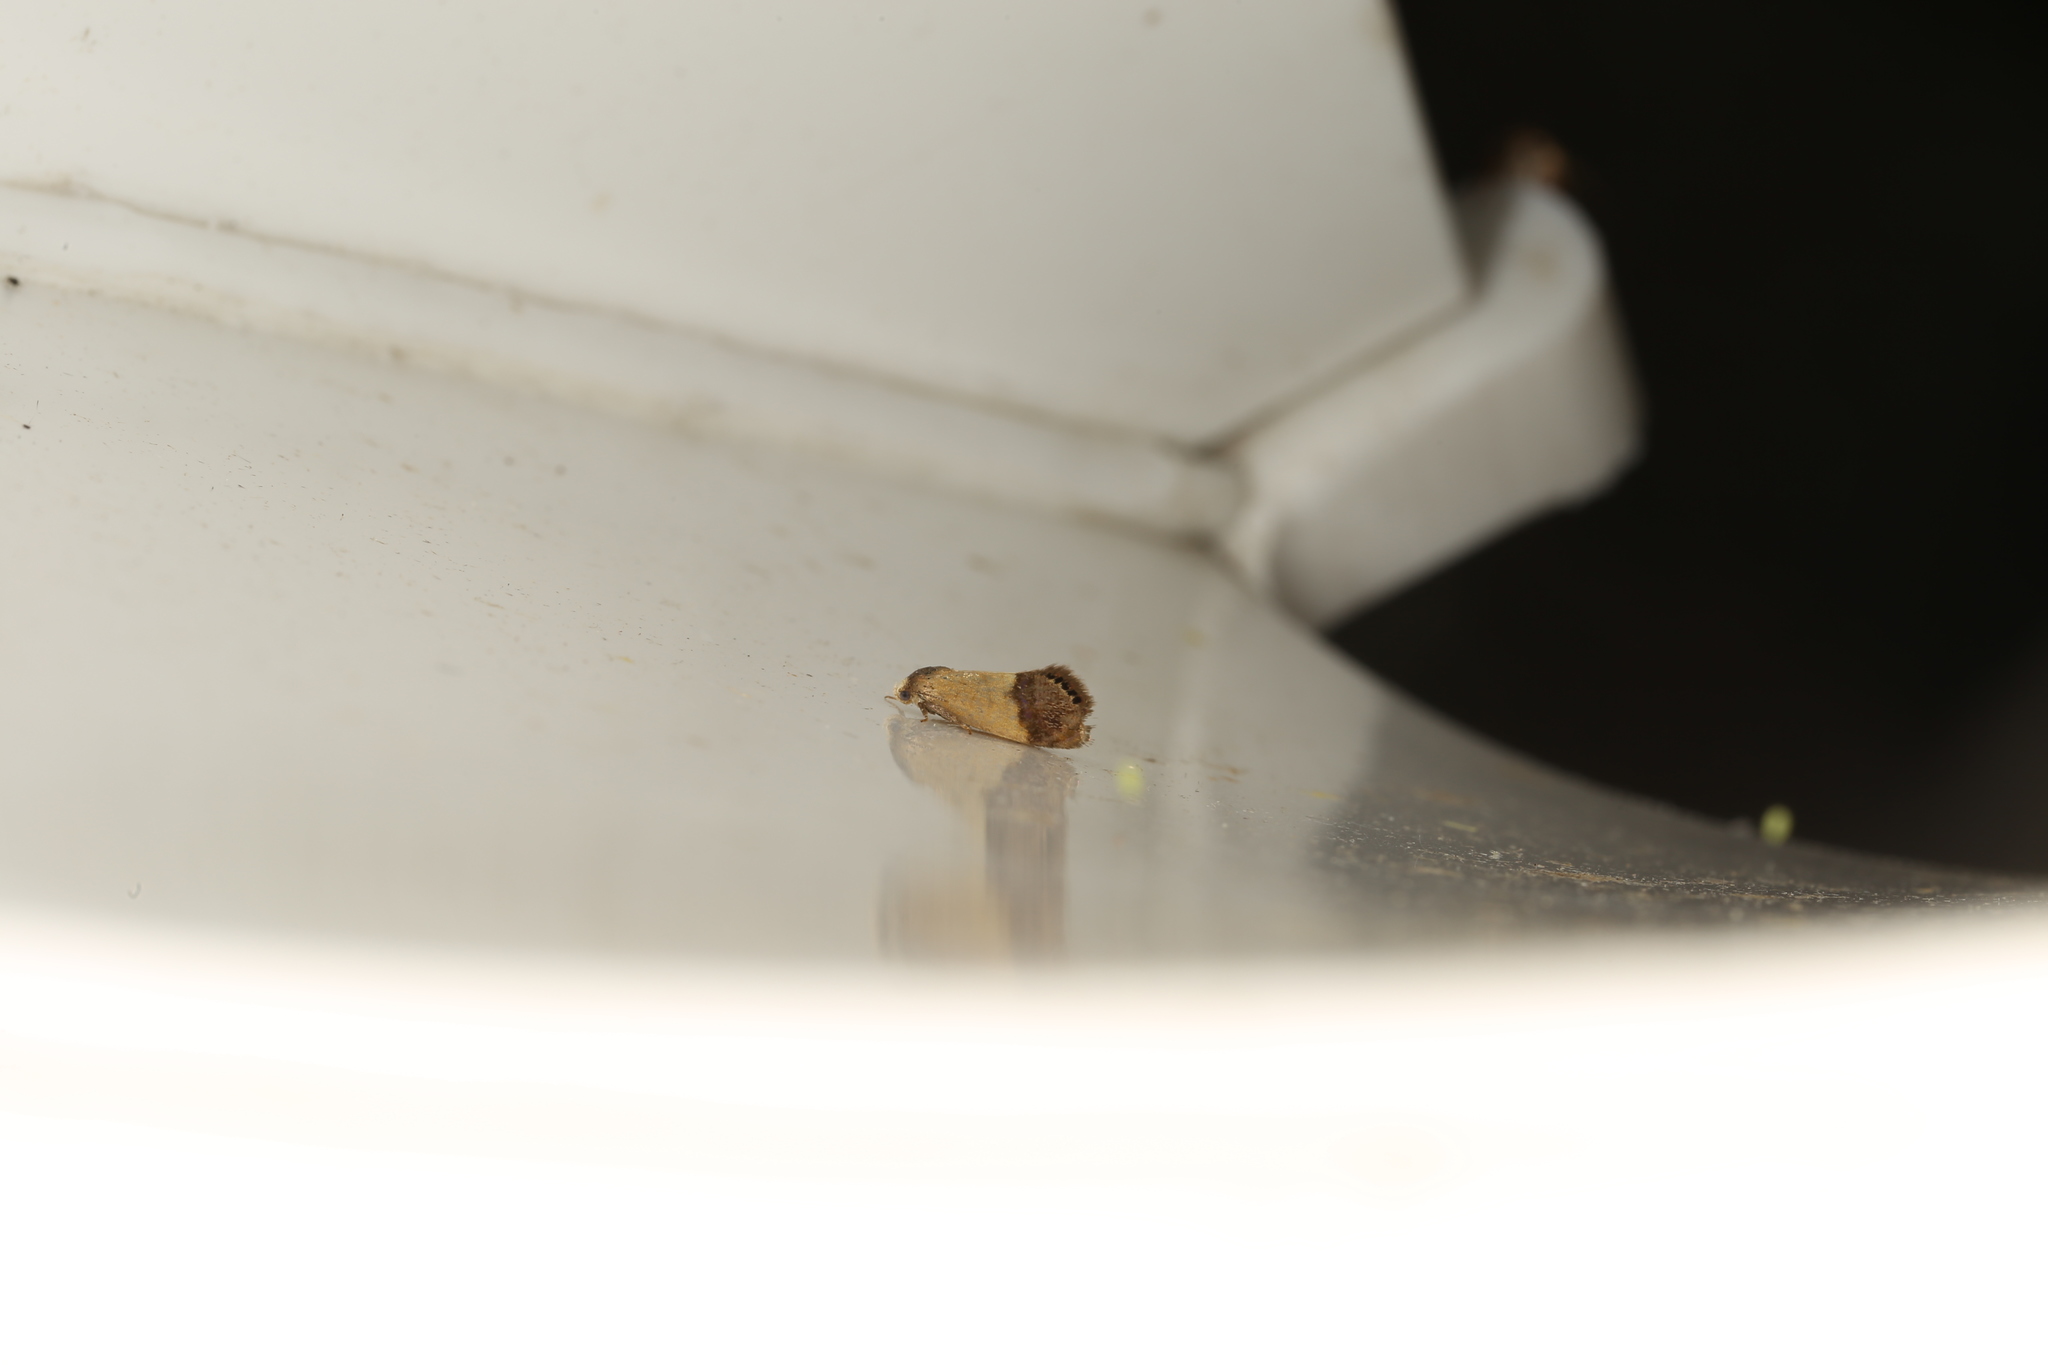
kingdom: Animalia
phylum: Arthropoda
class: Insecta
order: Lepidoptera
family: Depressariidae
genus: Eupselia
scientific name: Eupselia satrapella
